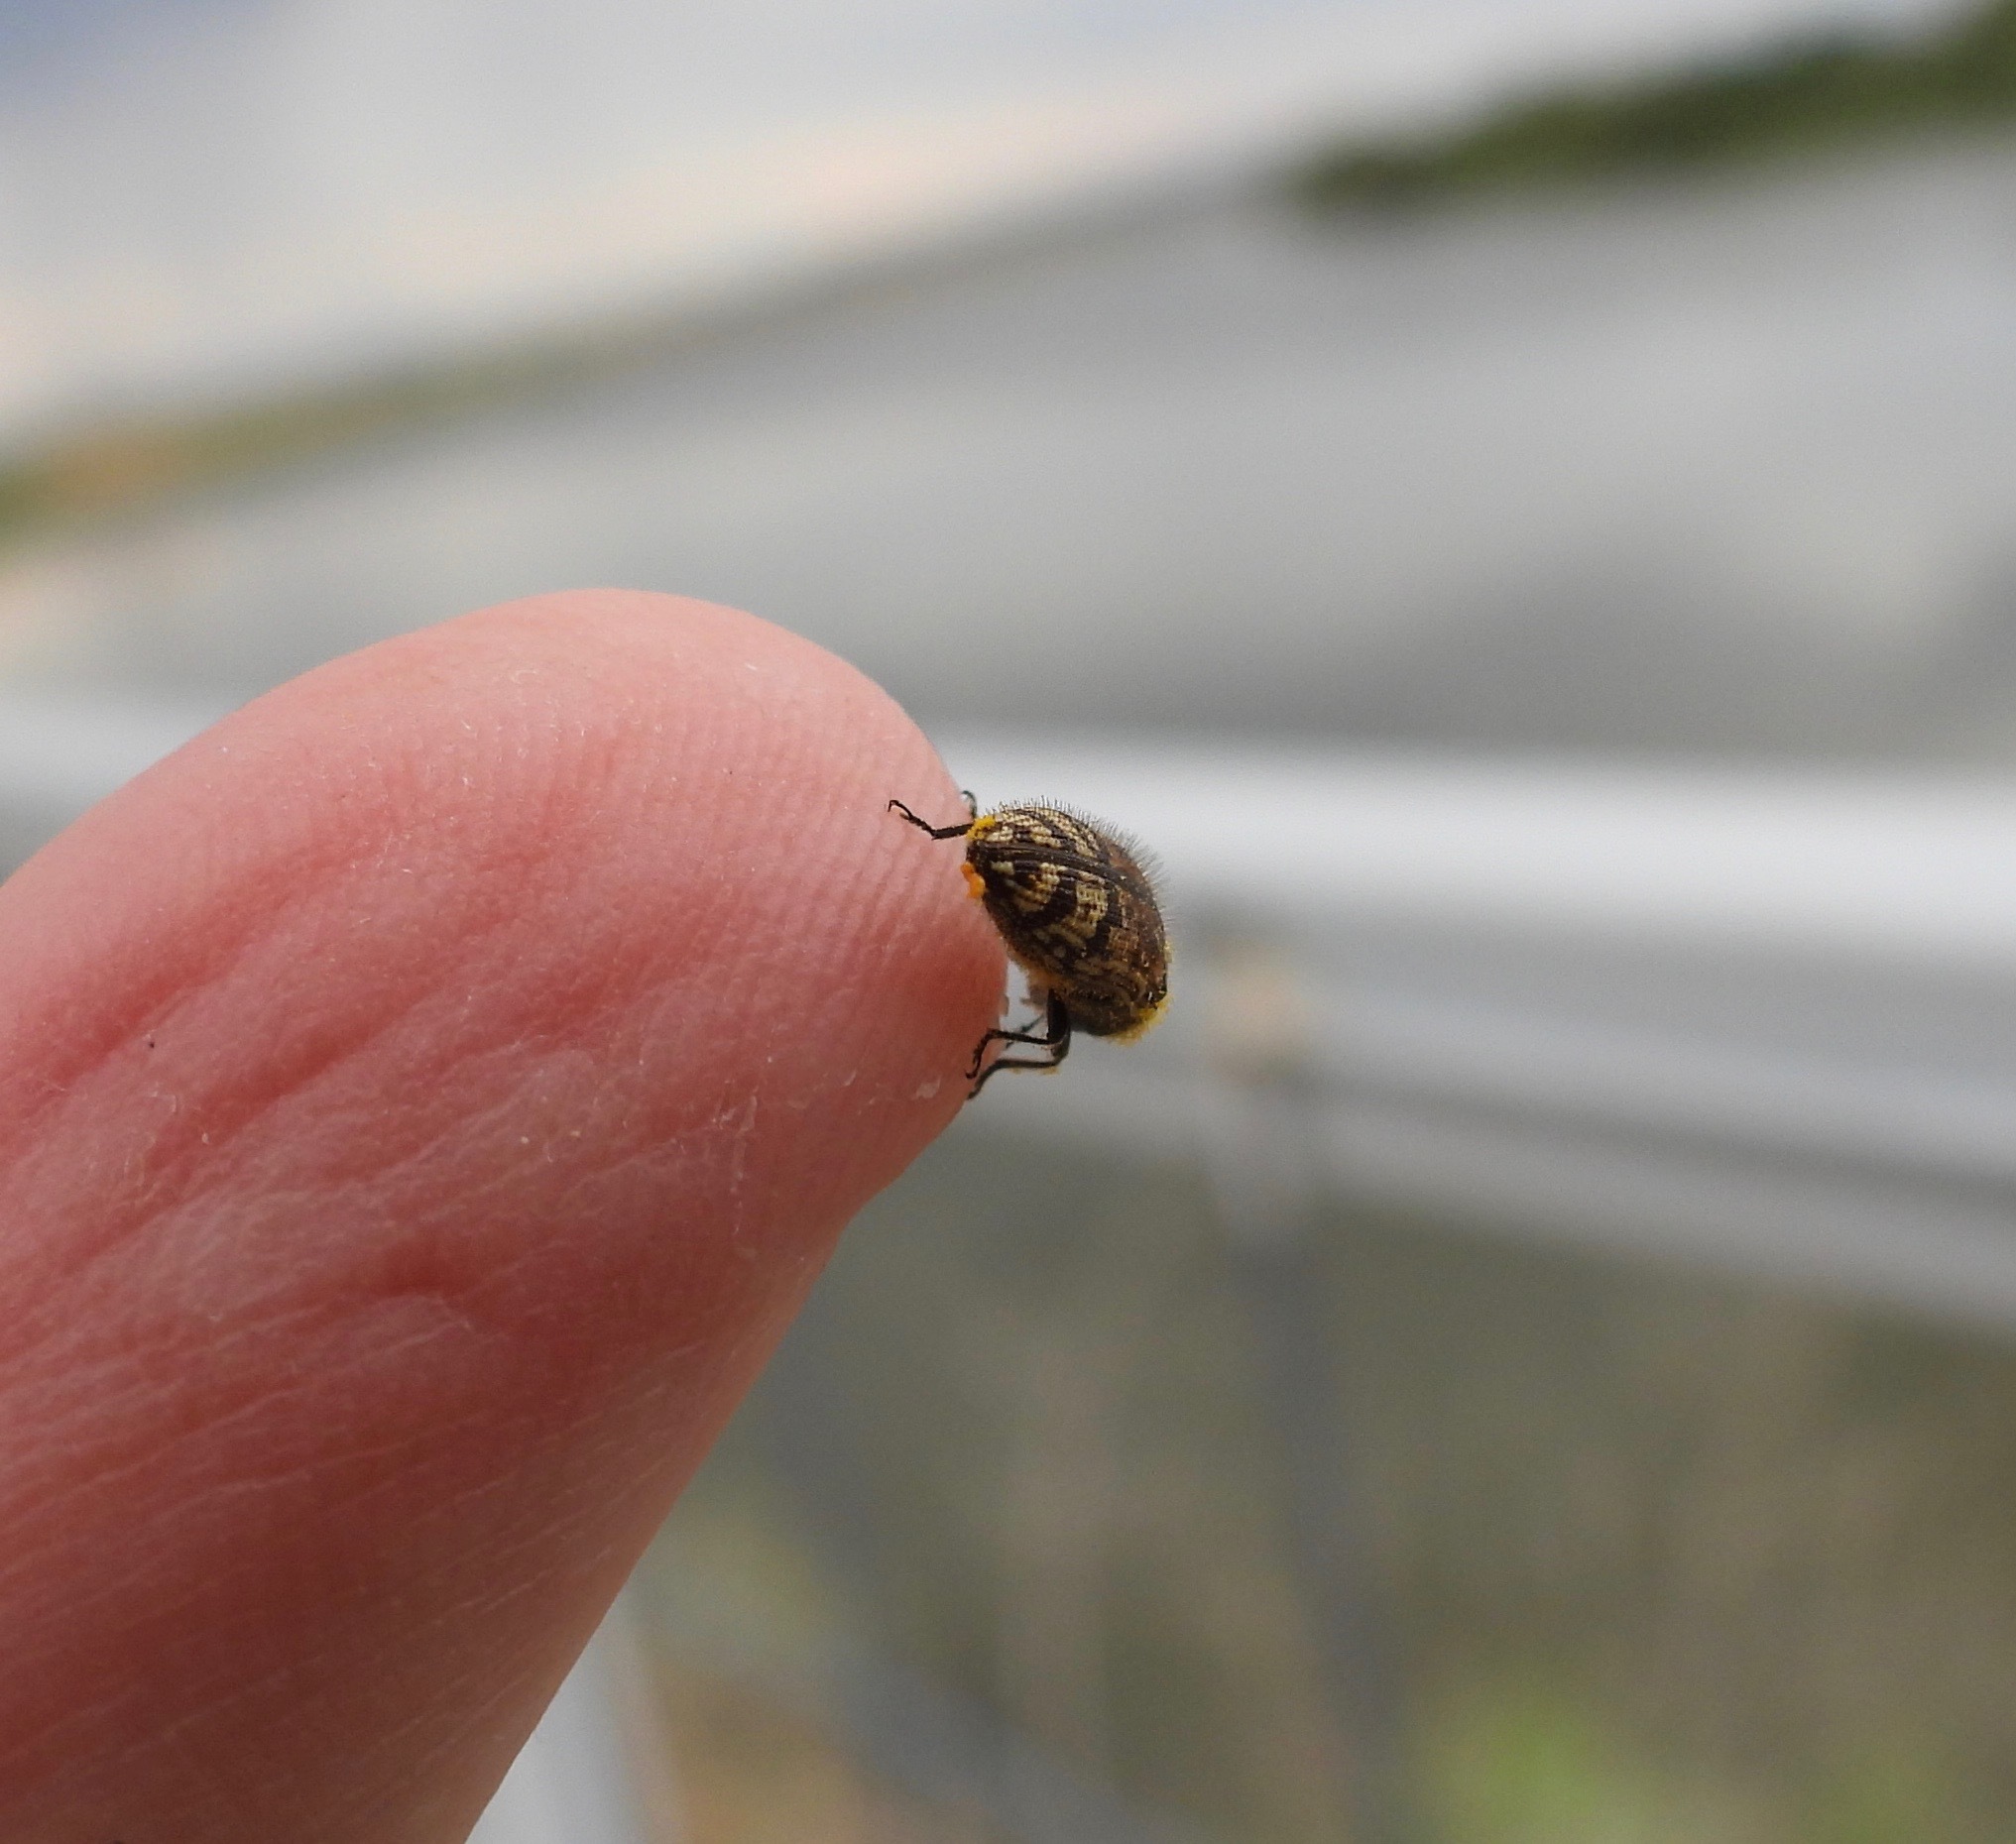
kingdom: Animalia
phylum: Arthropoda
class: Insecta
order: Coleoptera
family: Buprestidae
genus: Acmaeodera
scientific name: Acmaeodera mixta
